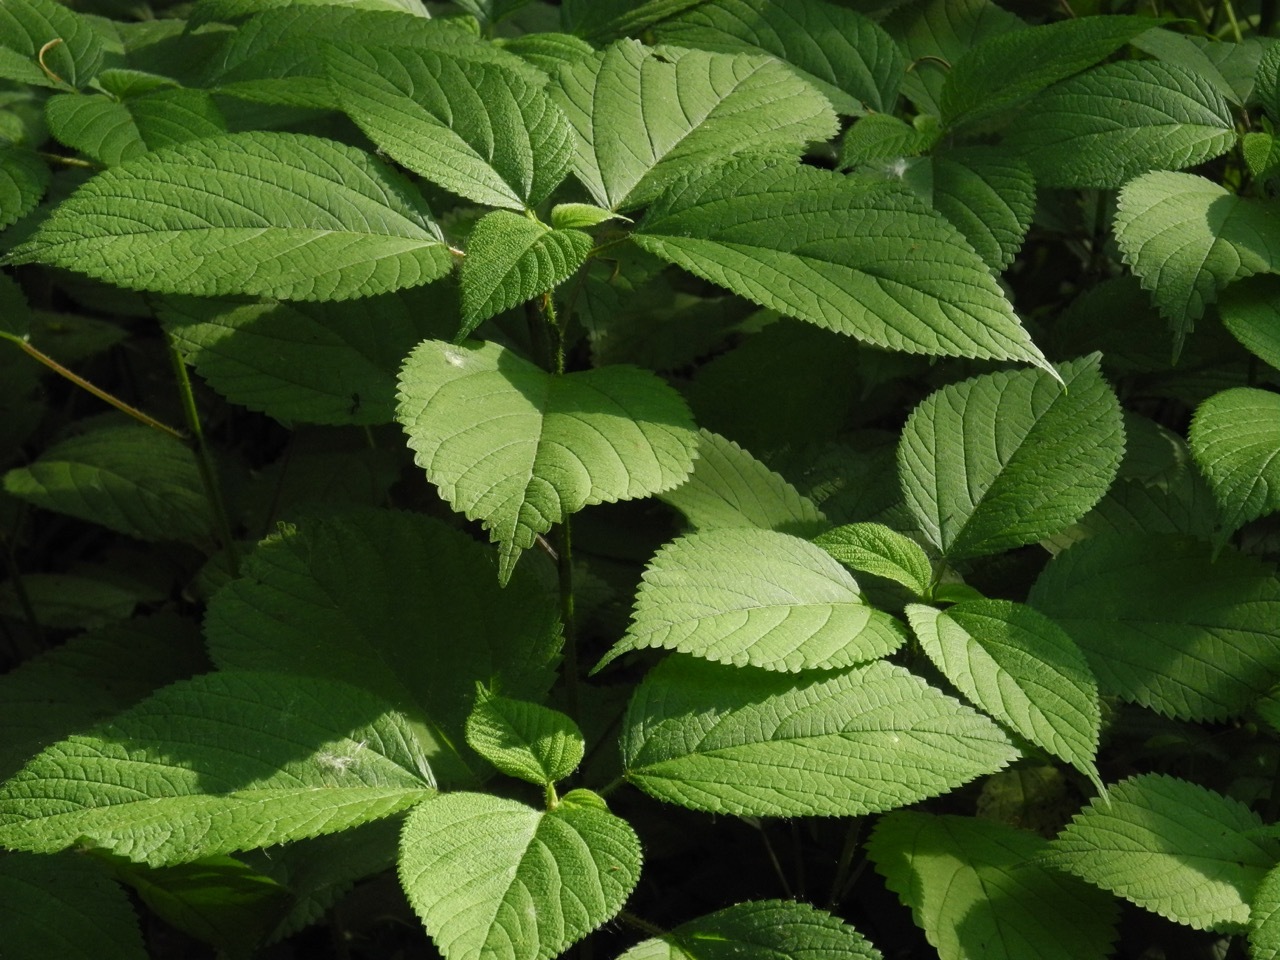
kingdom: Plantae
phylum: Tracheophyta
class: Magnoliopsida
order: Rosales
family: Urticaceae
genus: Laportea
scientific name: Laportea canadensis
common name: Canada nettle
